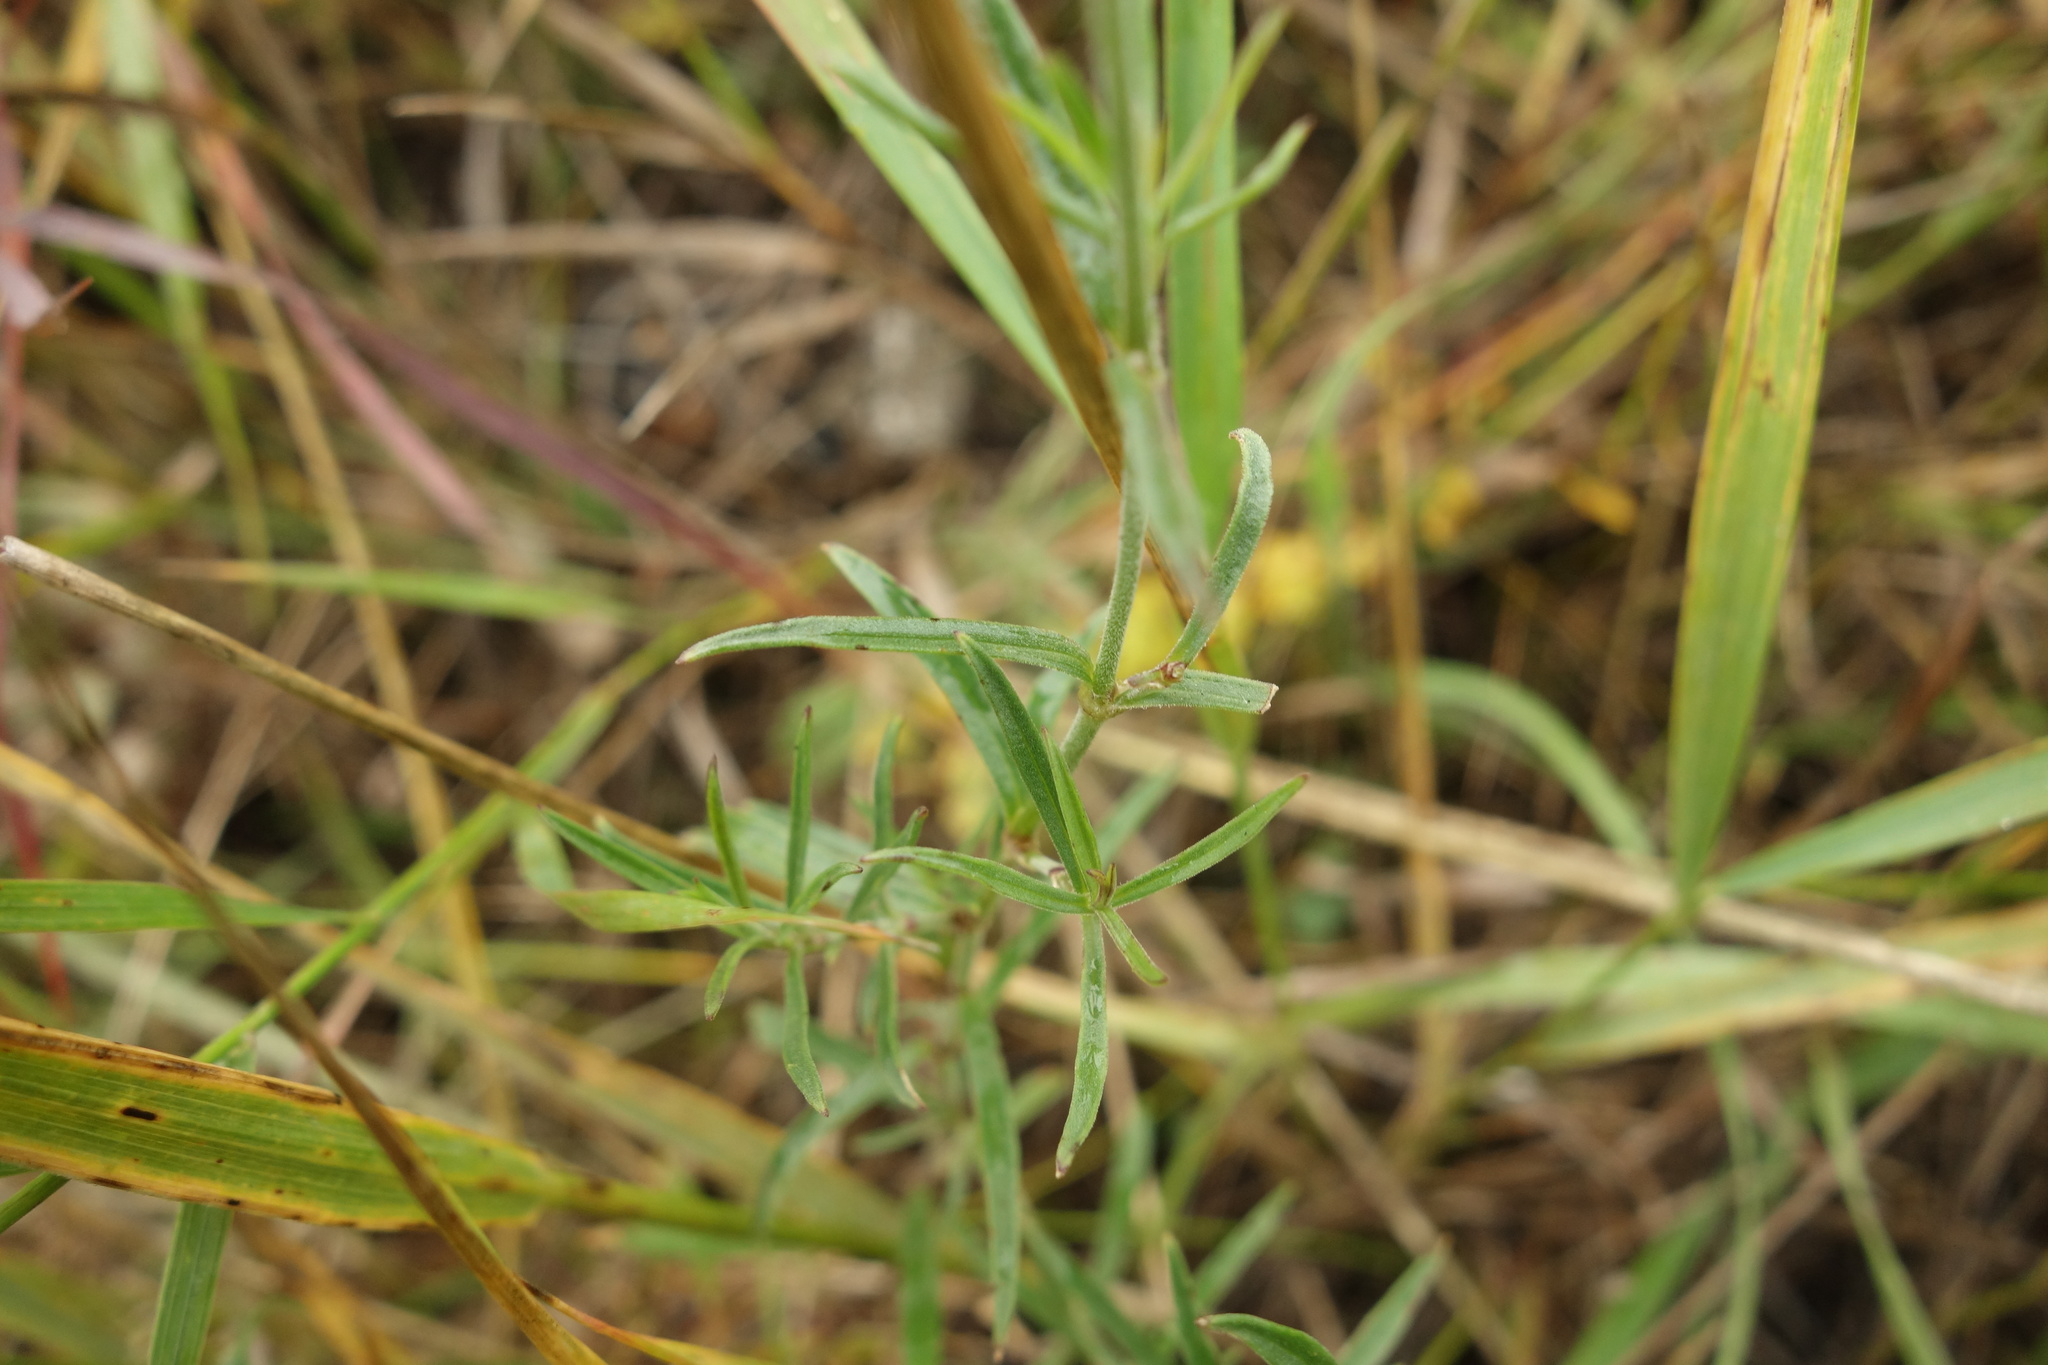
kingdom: Plantae
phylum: Tracheophyta
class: Magnoliopsida
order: Caryophyllales
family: Caryophyllaceae
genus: Silene
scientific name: Silene amoena
